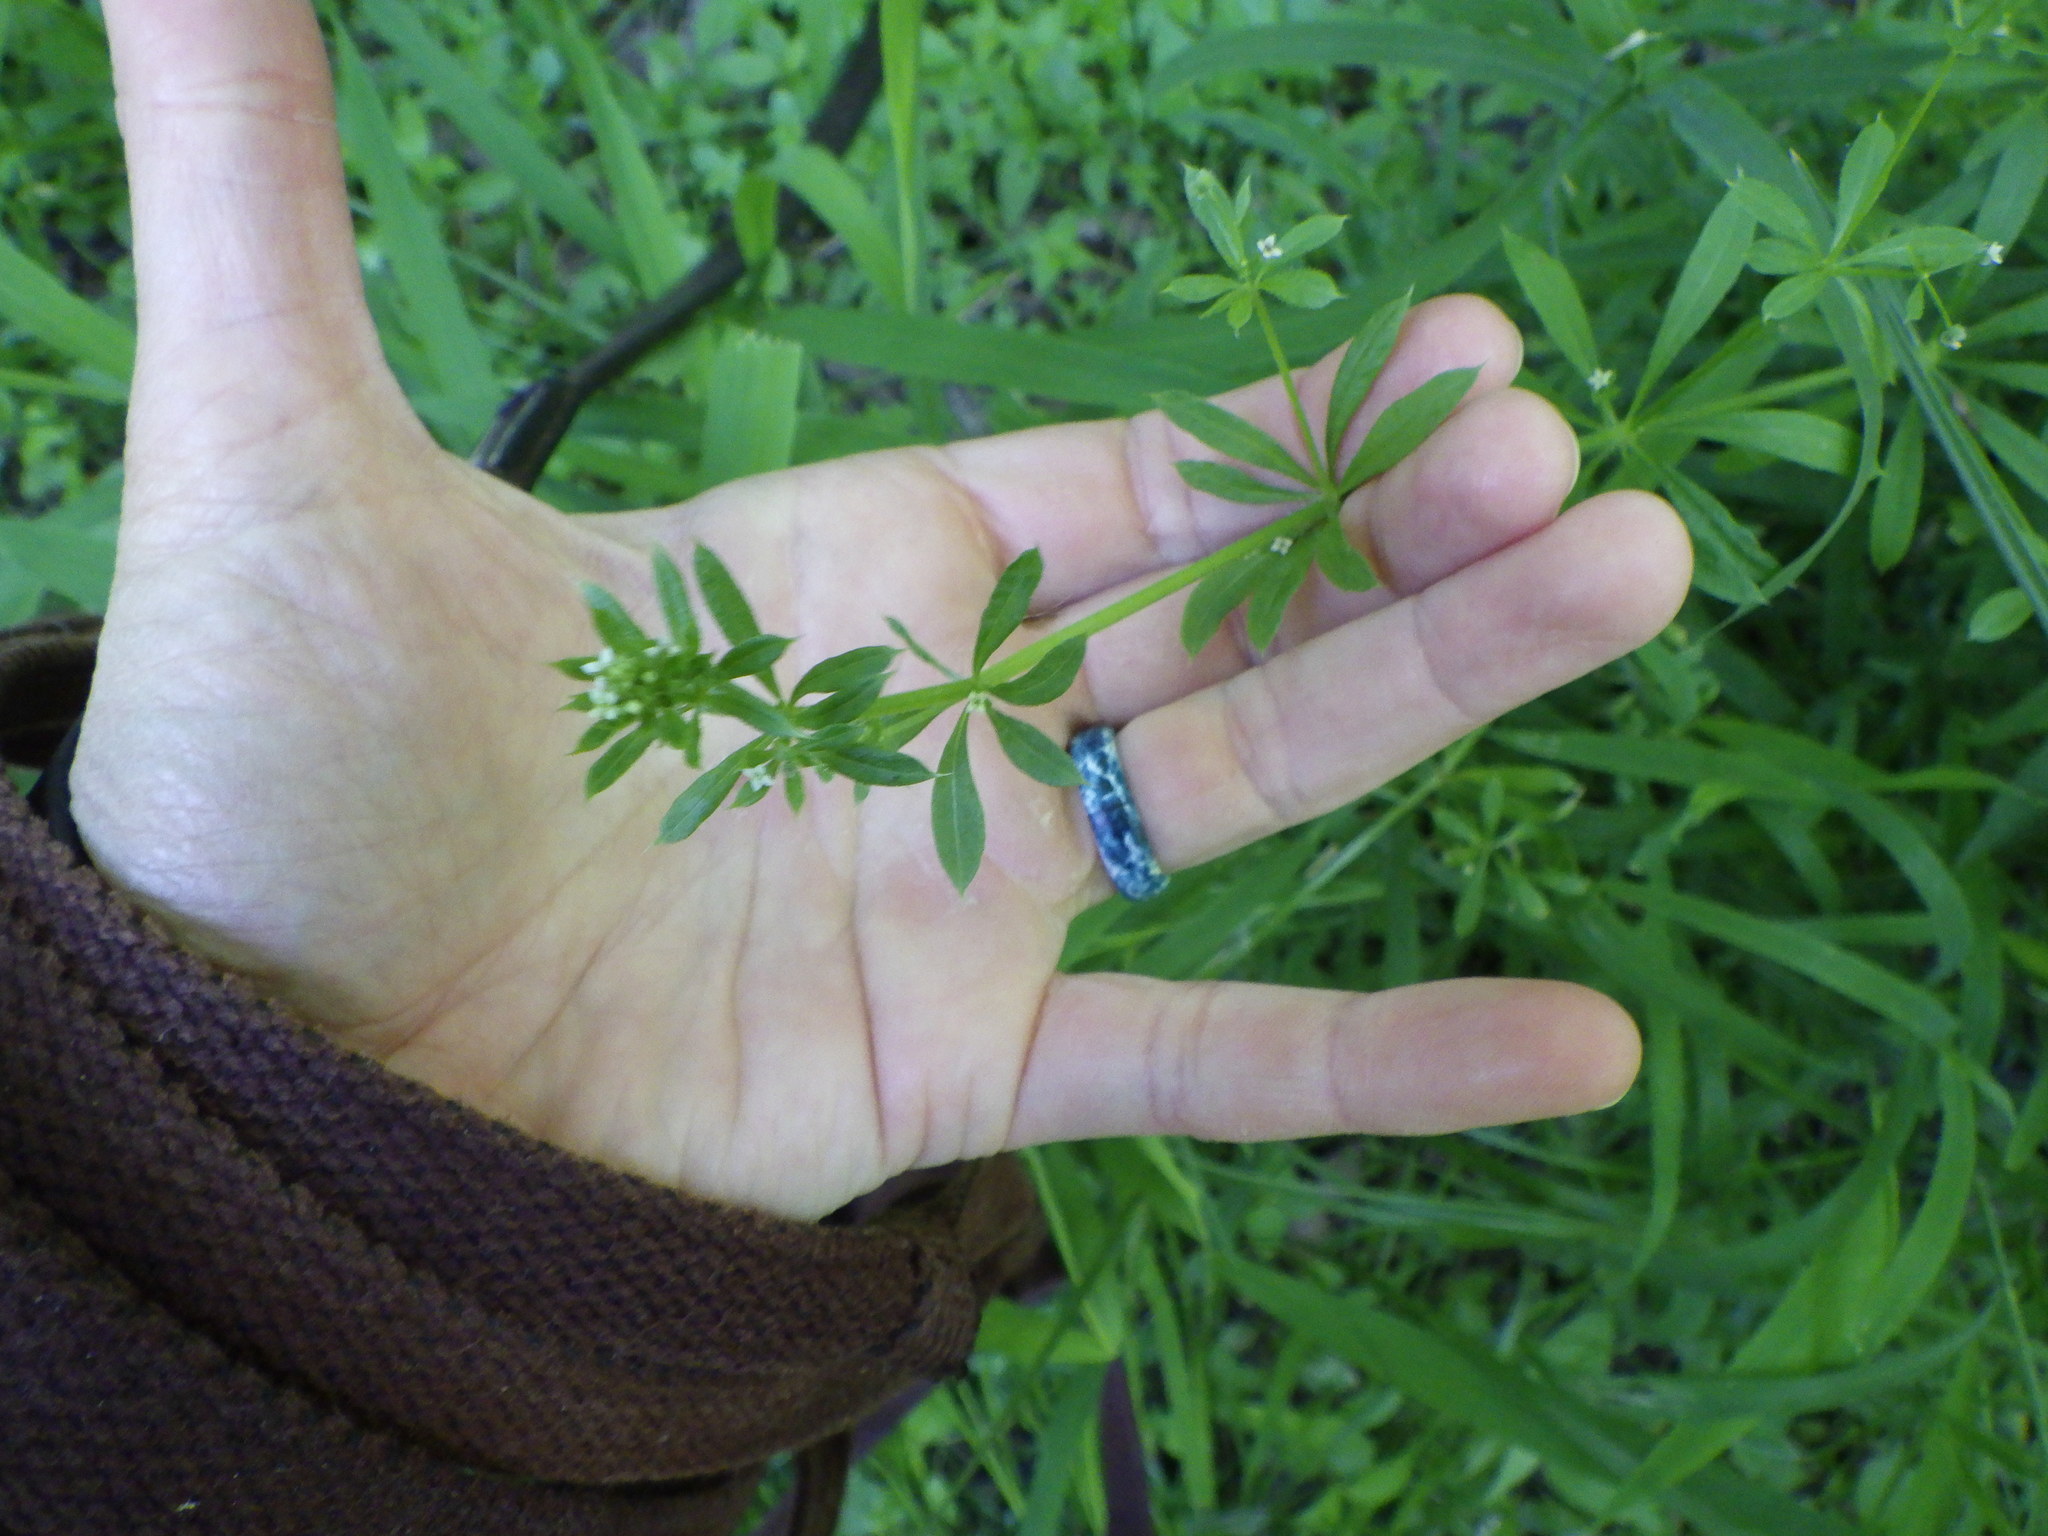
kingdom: Plantae
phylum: Tracheophyta
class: Magnoliopsida
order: Gentianales
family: Rubiaceae
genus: Galium
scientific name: Galium aparine
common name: Cleavers
